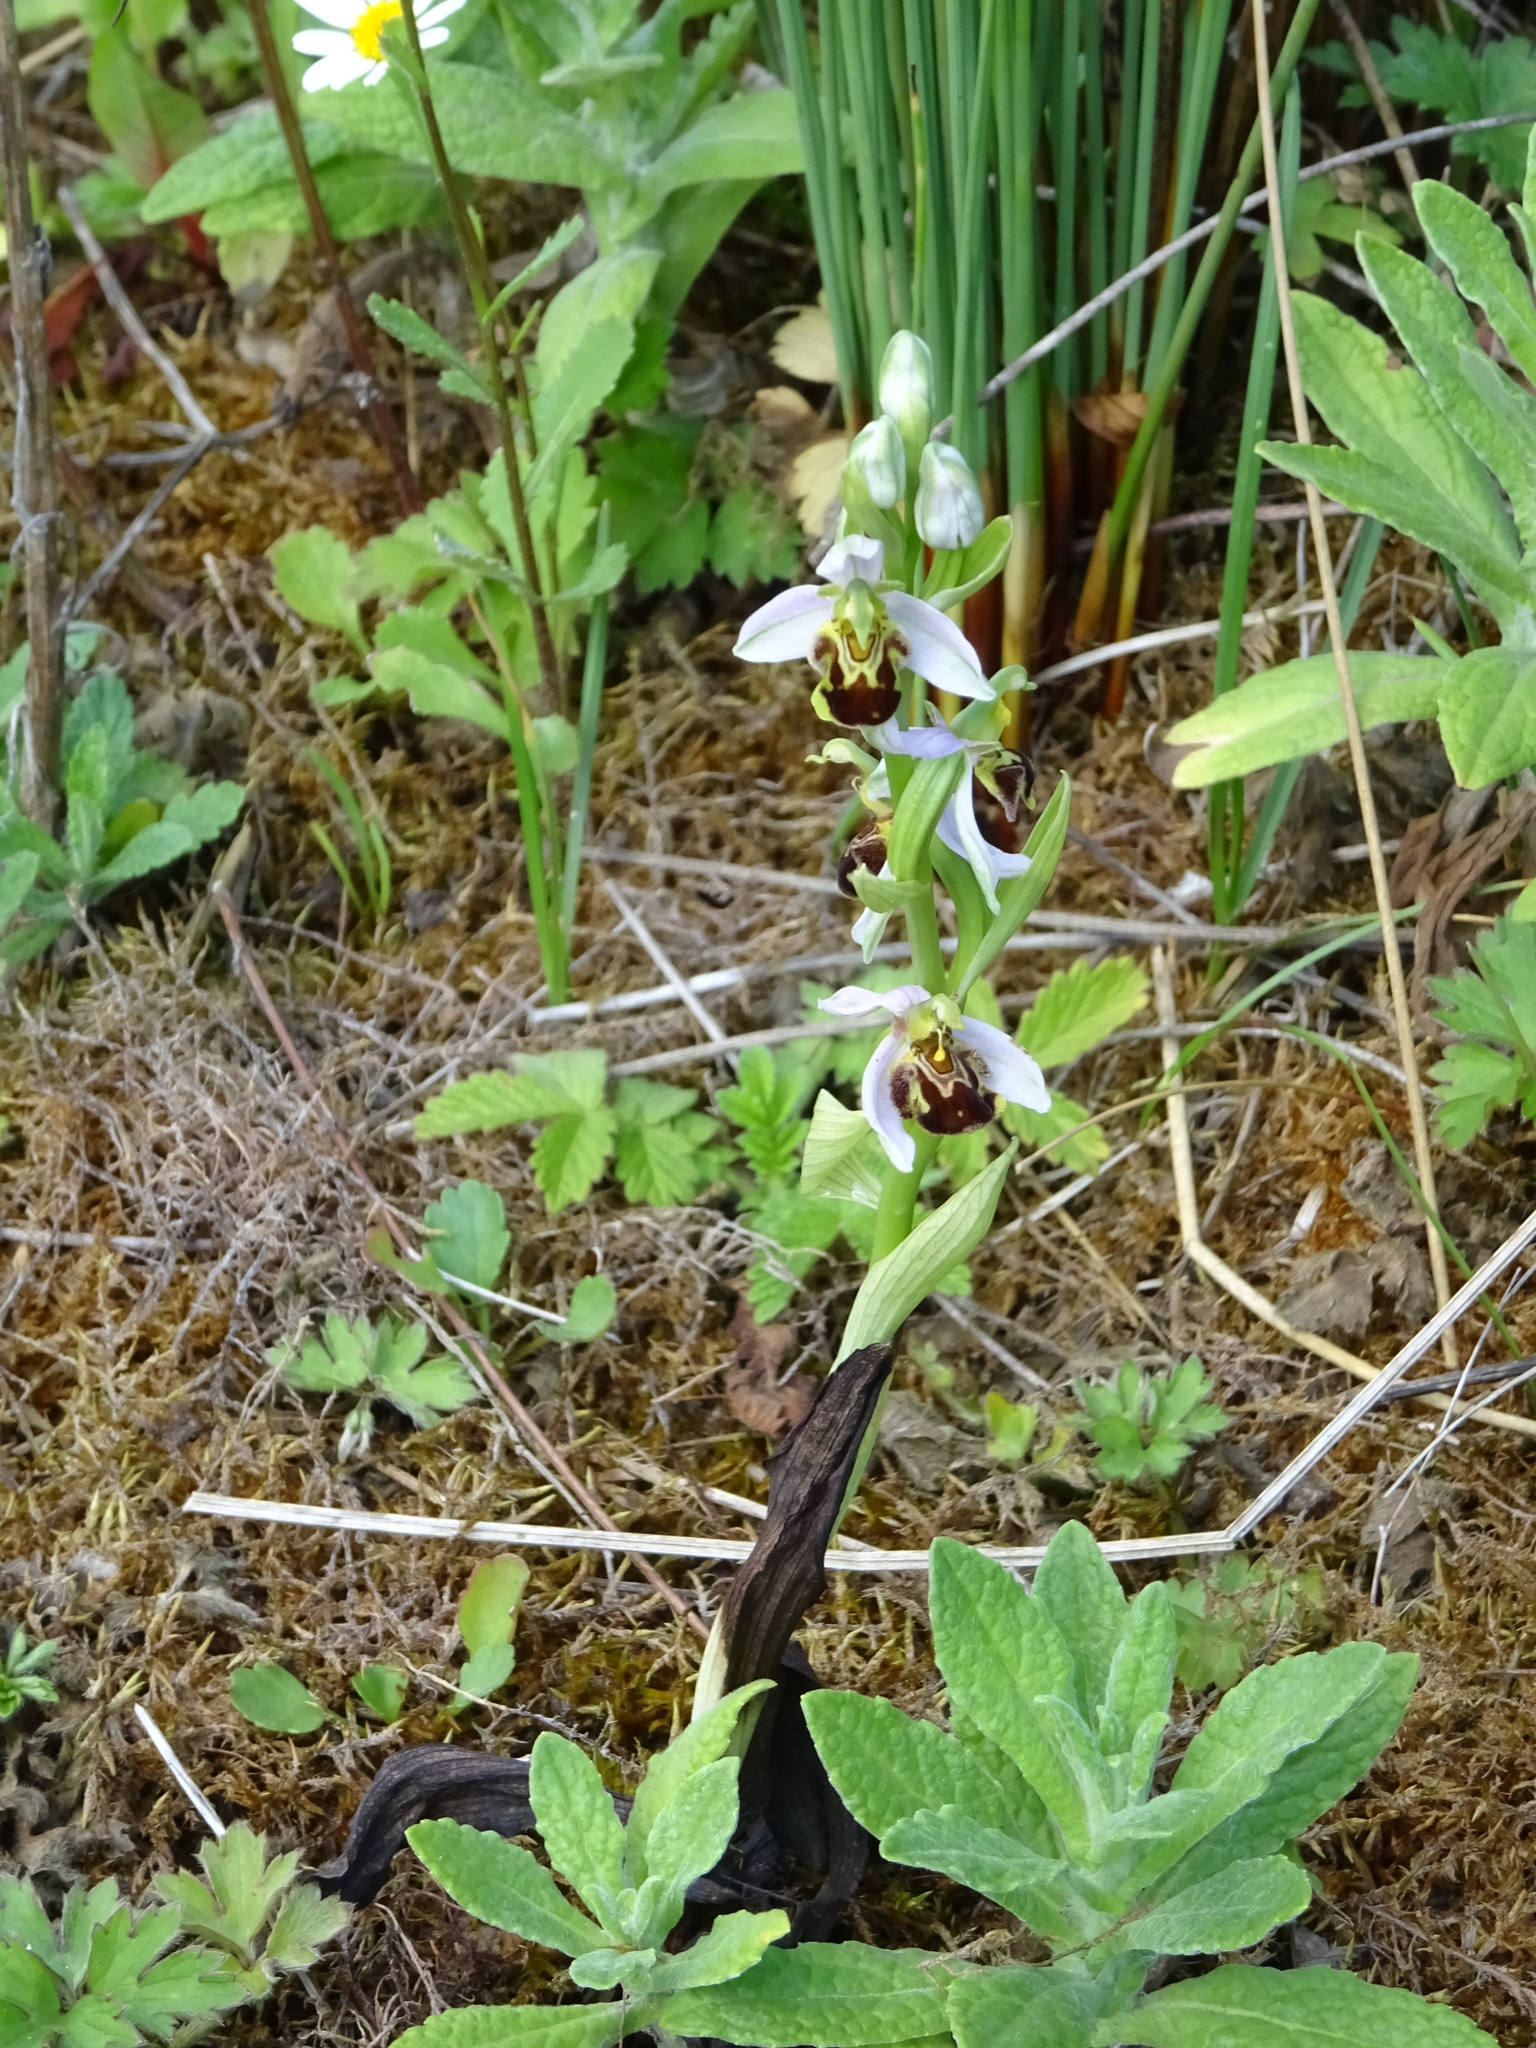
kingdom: Plantae
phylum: Tracheophyta
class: Liliopsida
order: Asparagales
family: Orchidaceae
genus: Ophrys
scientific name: Ophrys apifera
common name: Bee orchid
